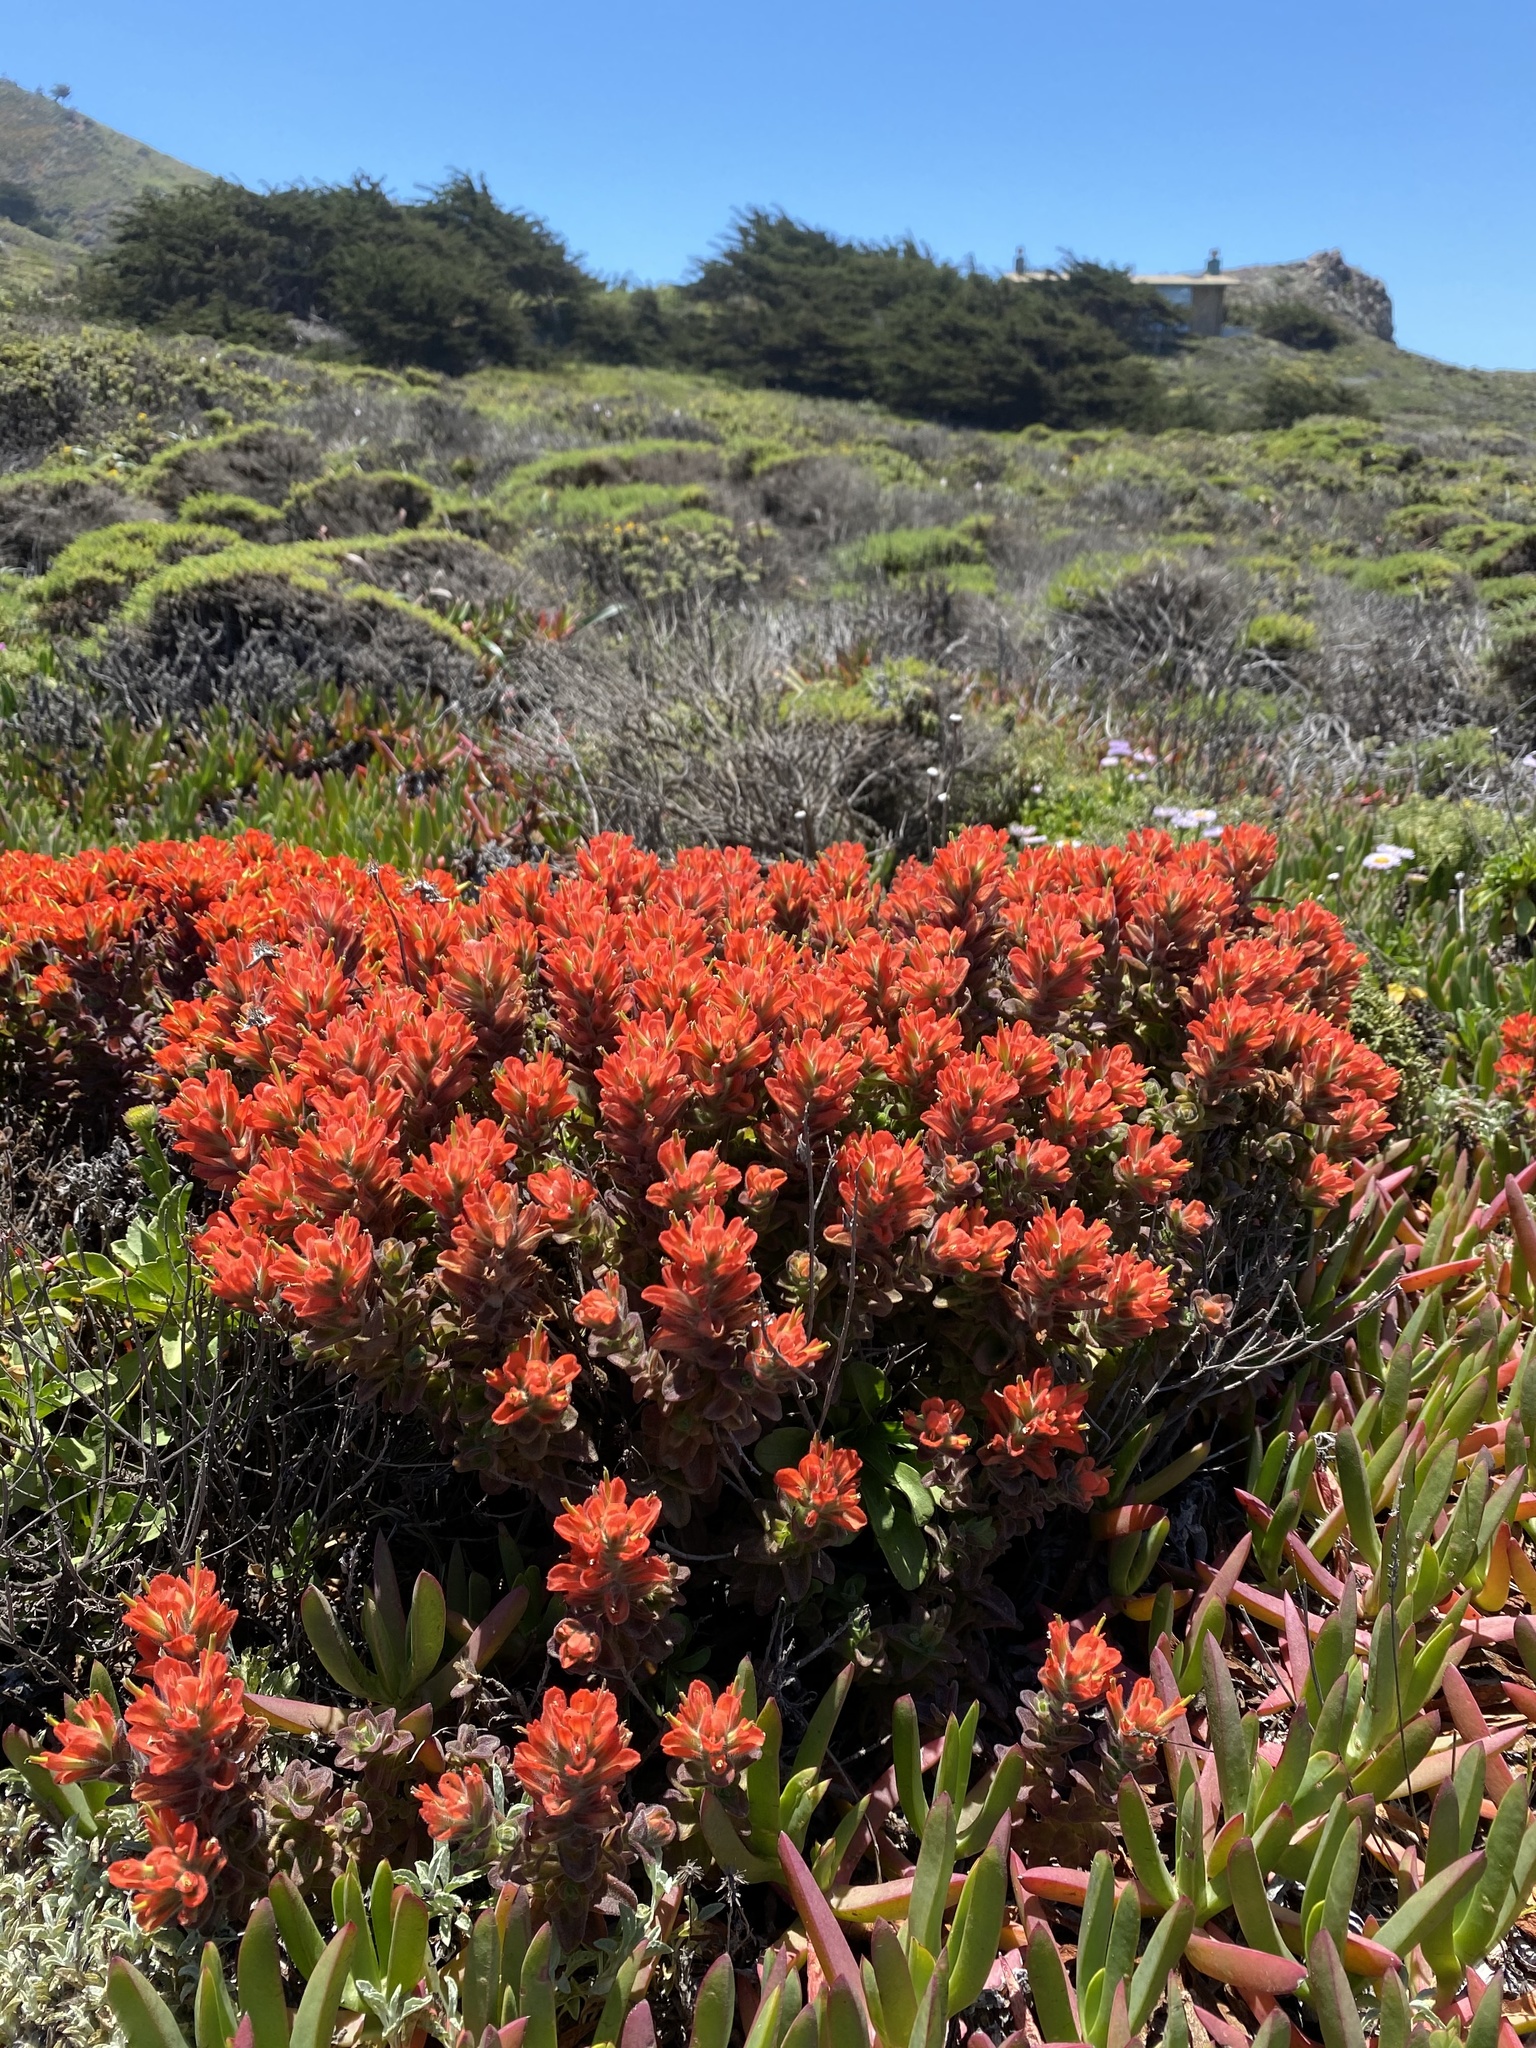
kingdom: Plantae
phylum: Tracheophyta
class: Magnoliopsida
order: Lamiales
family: Orobanchaceae
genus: Castilleja
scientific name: Castilleja latifolia
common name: Monterey indian paintbrush
